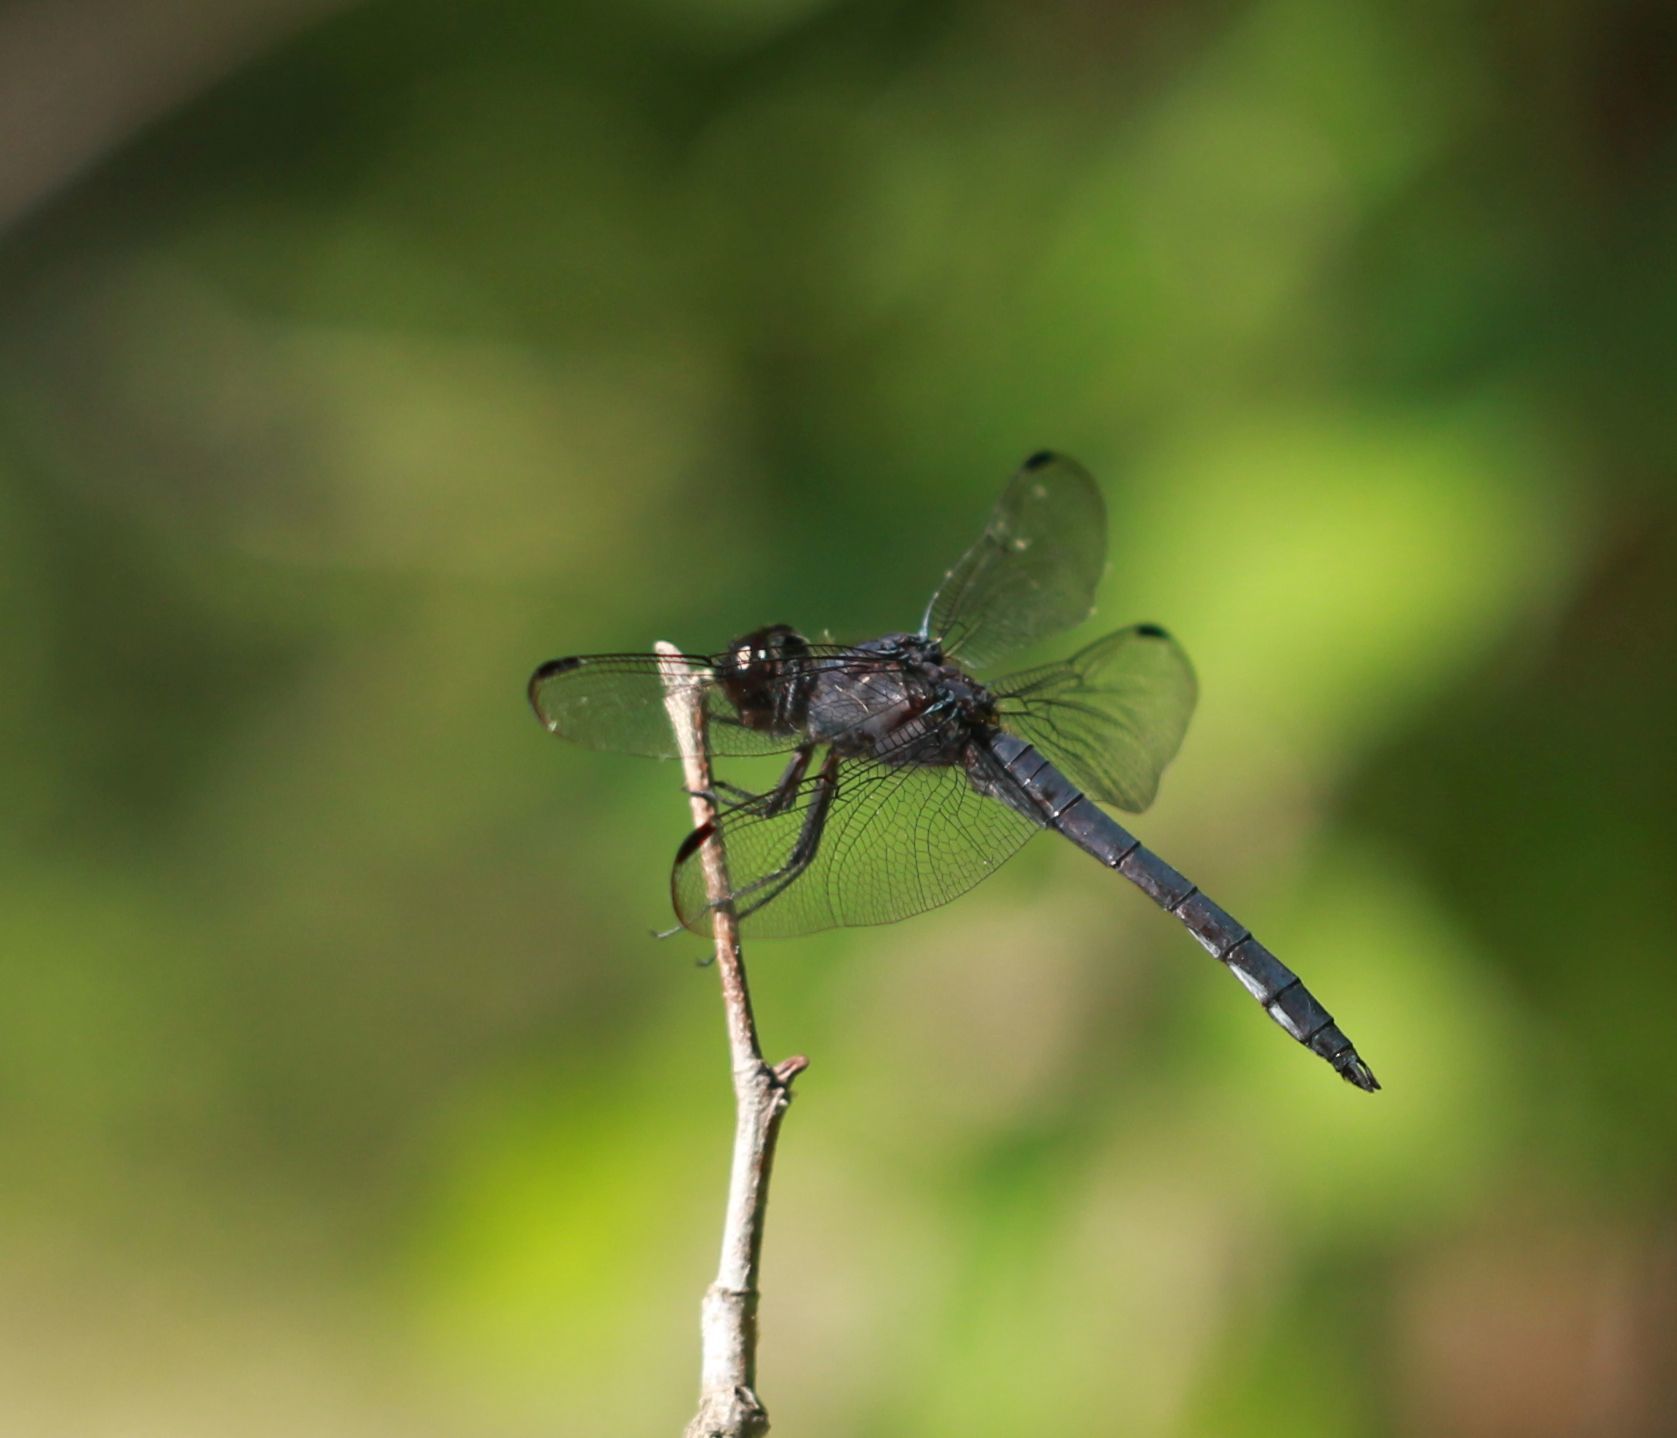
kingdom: Animalia
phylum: Arthropoda
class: Insecta
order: Odonata
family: Libellulidae
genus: Libellula
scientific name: Libellula incesta
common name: Slaty skimmer
